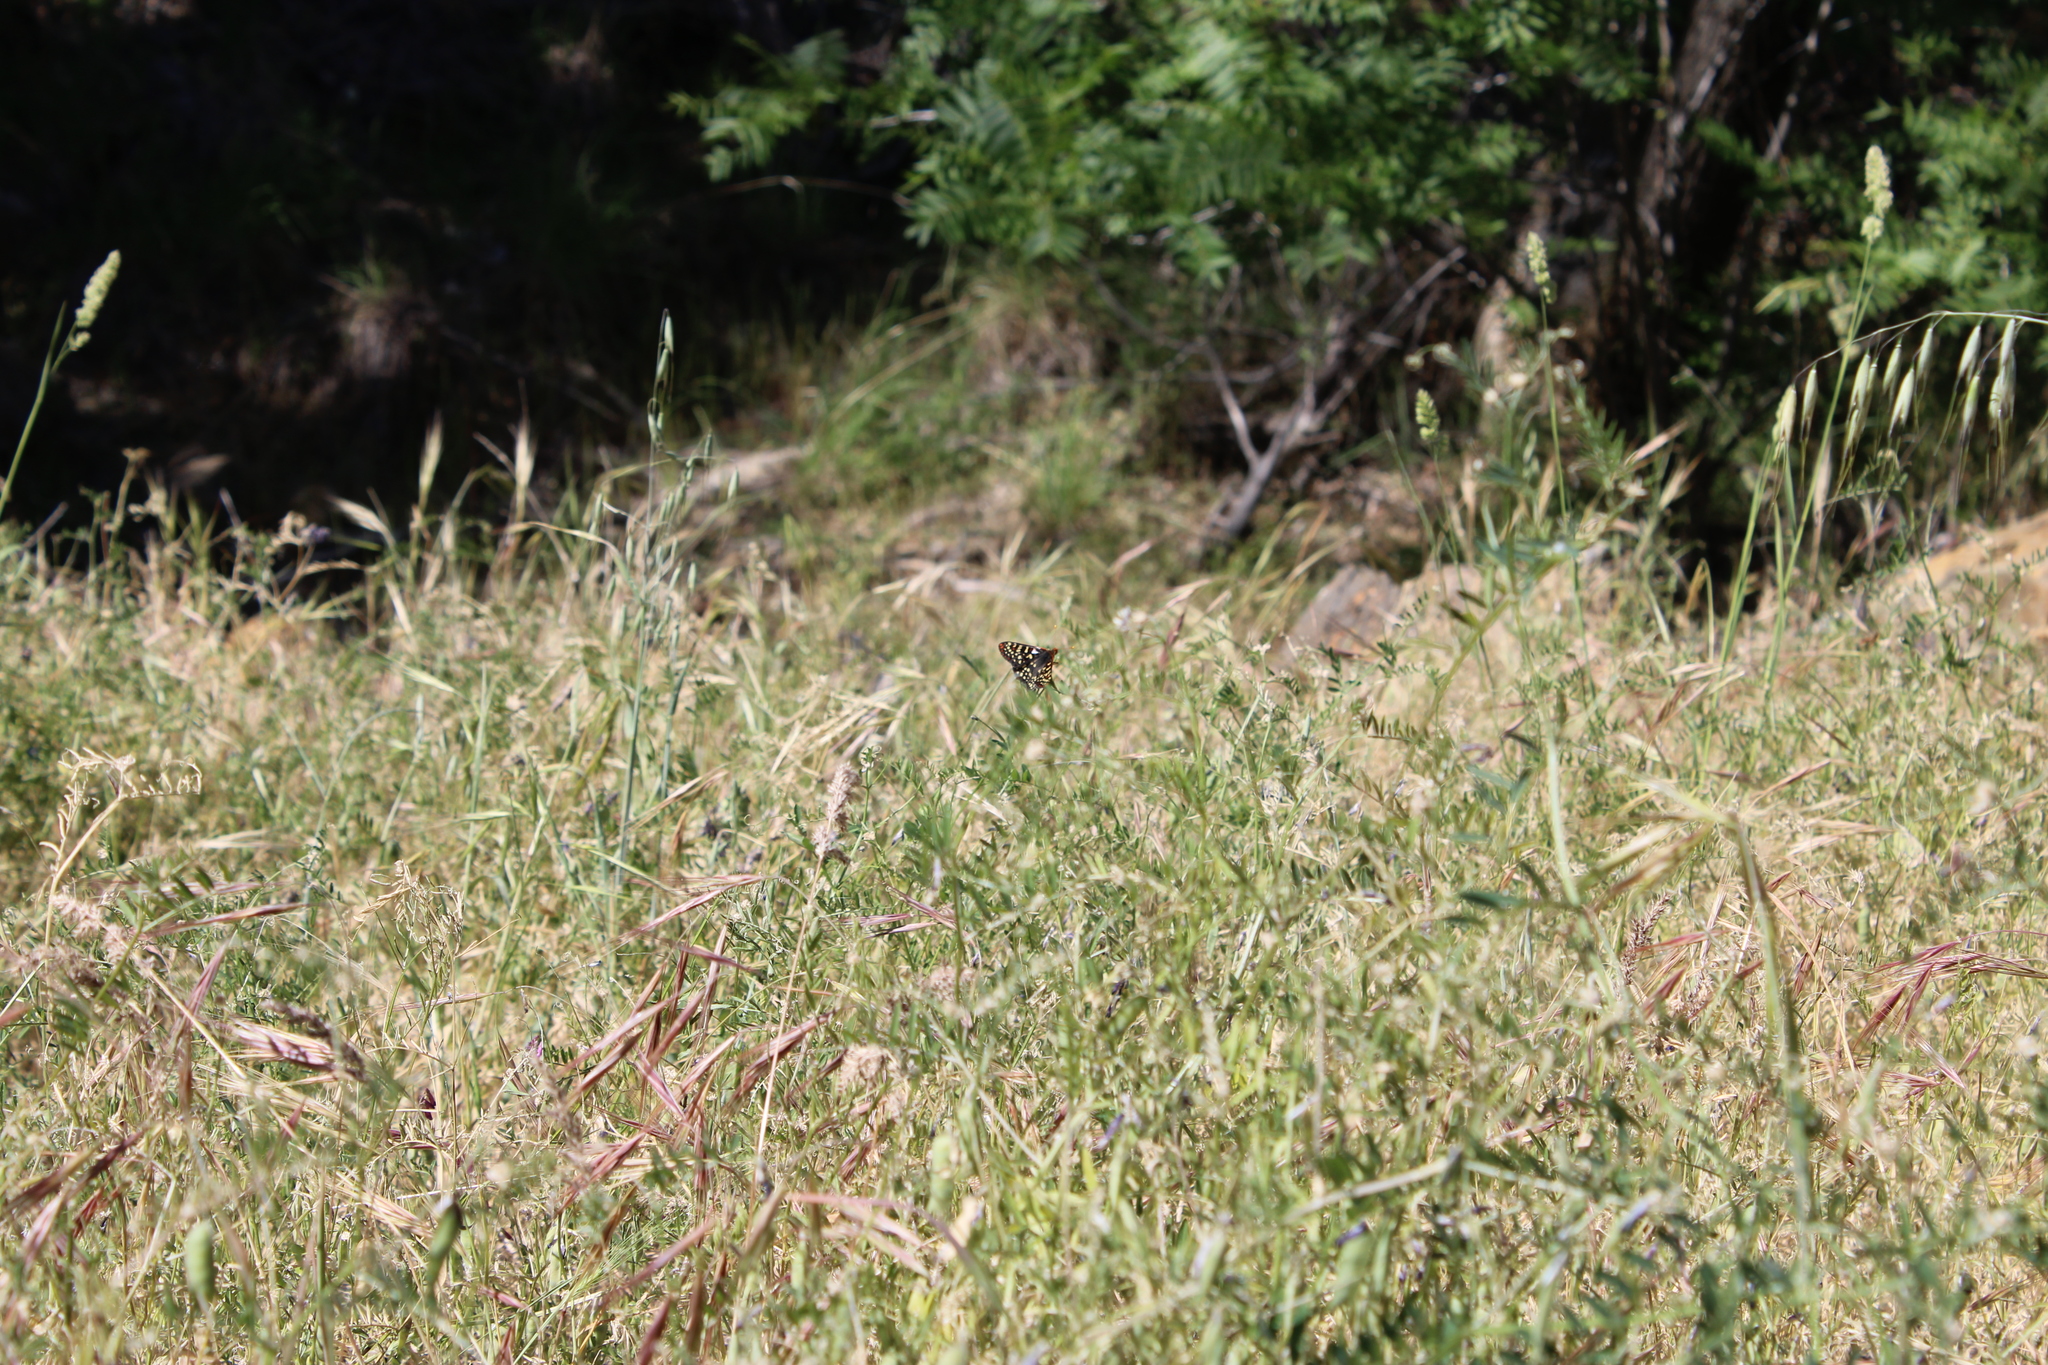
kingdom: Animalia
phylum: Arthropoda
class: Insecta
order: Lepidoptera
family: Nymphalidae
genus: Occidryas
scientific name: Occidryas chalcedona
